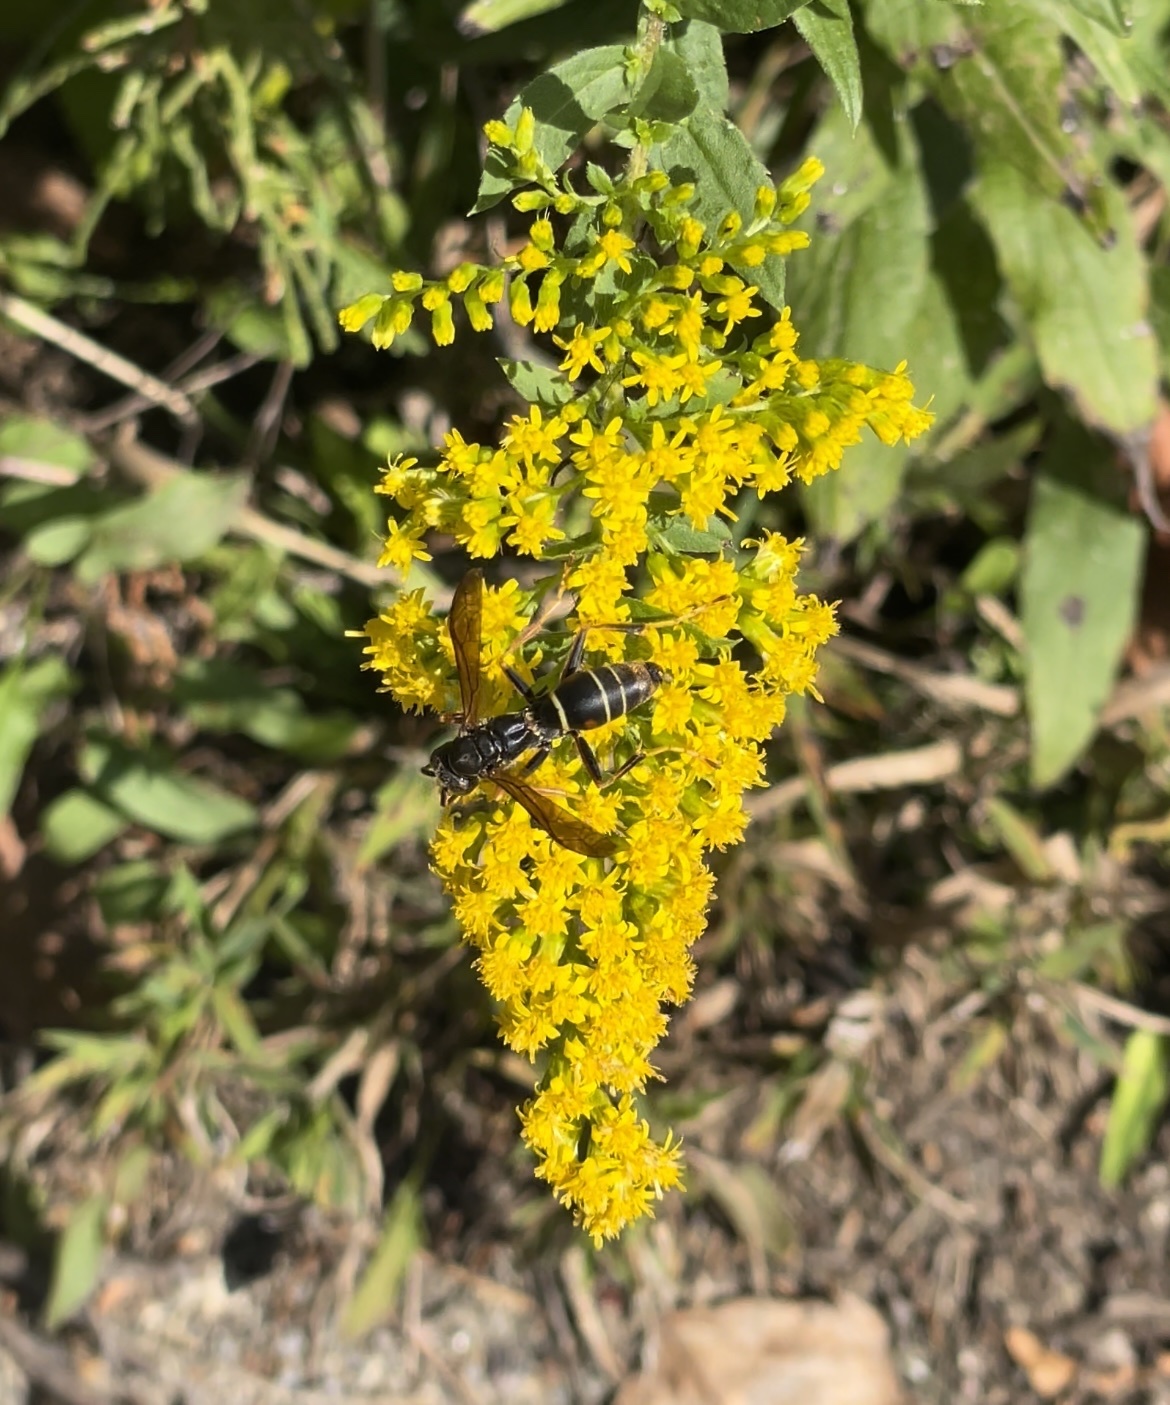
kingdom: Animalia
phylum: Arthropoda
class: Insecta
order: Hymenoptera
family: Eumenidae
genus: Polistes
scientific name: Polistes fuscatus
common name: Dark paper wasp
